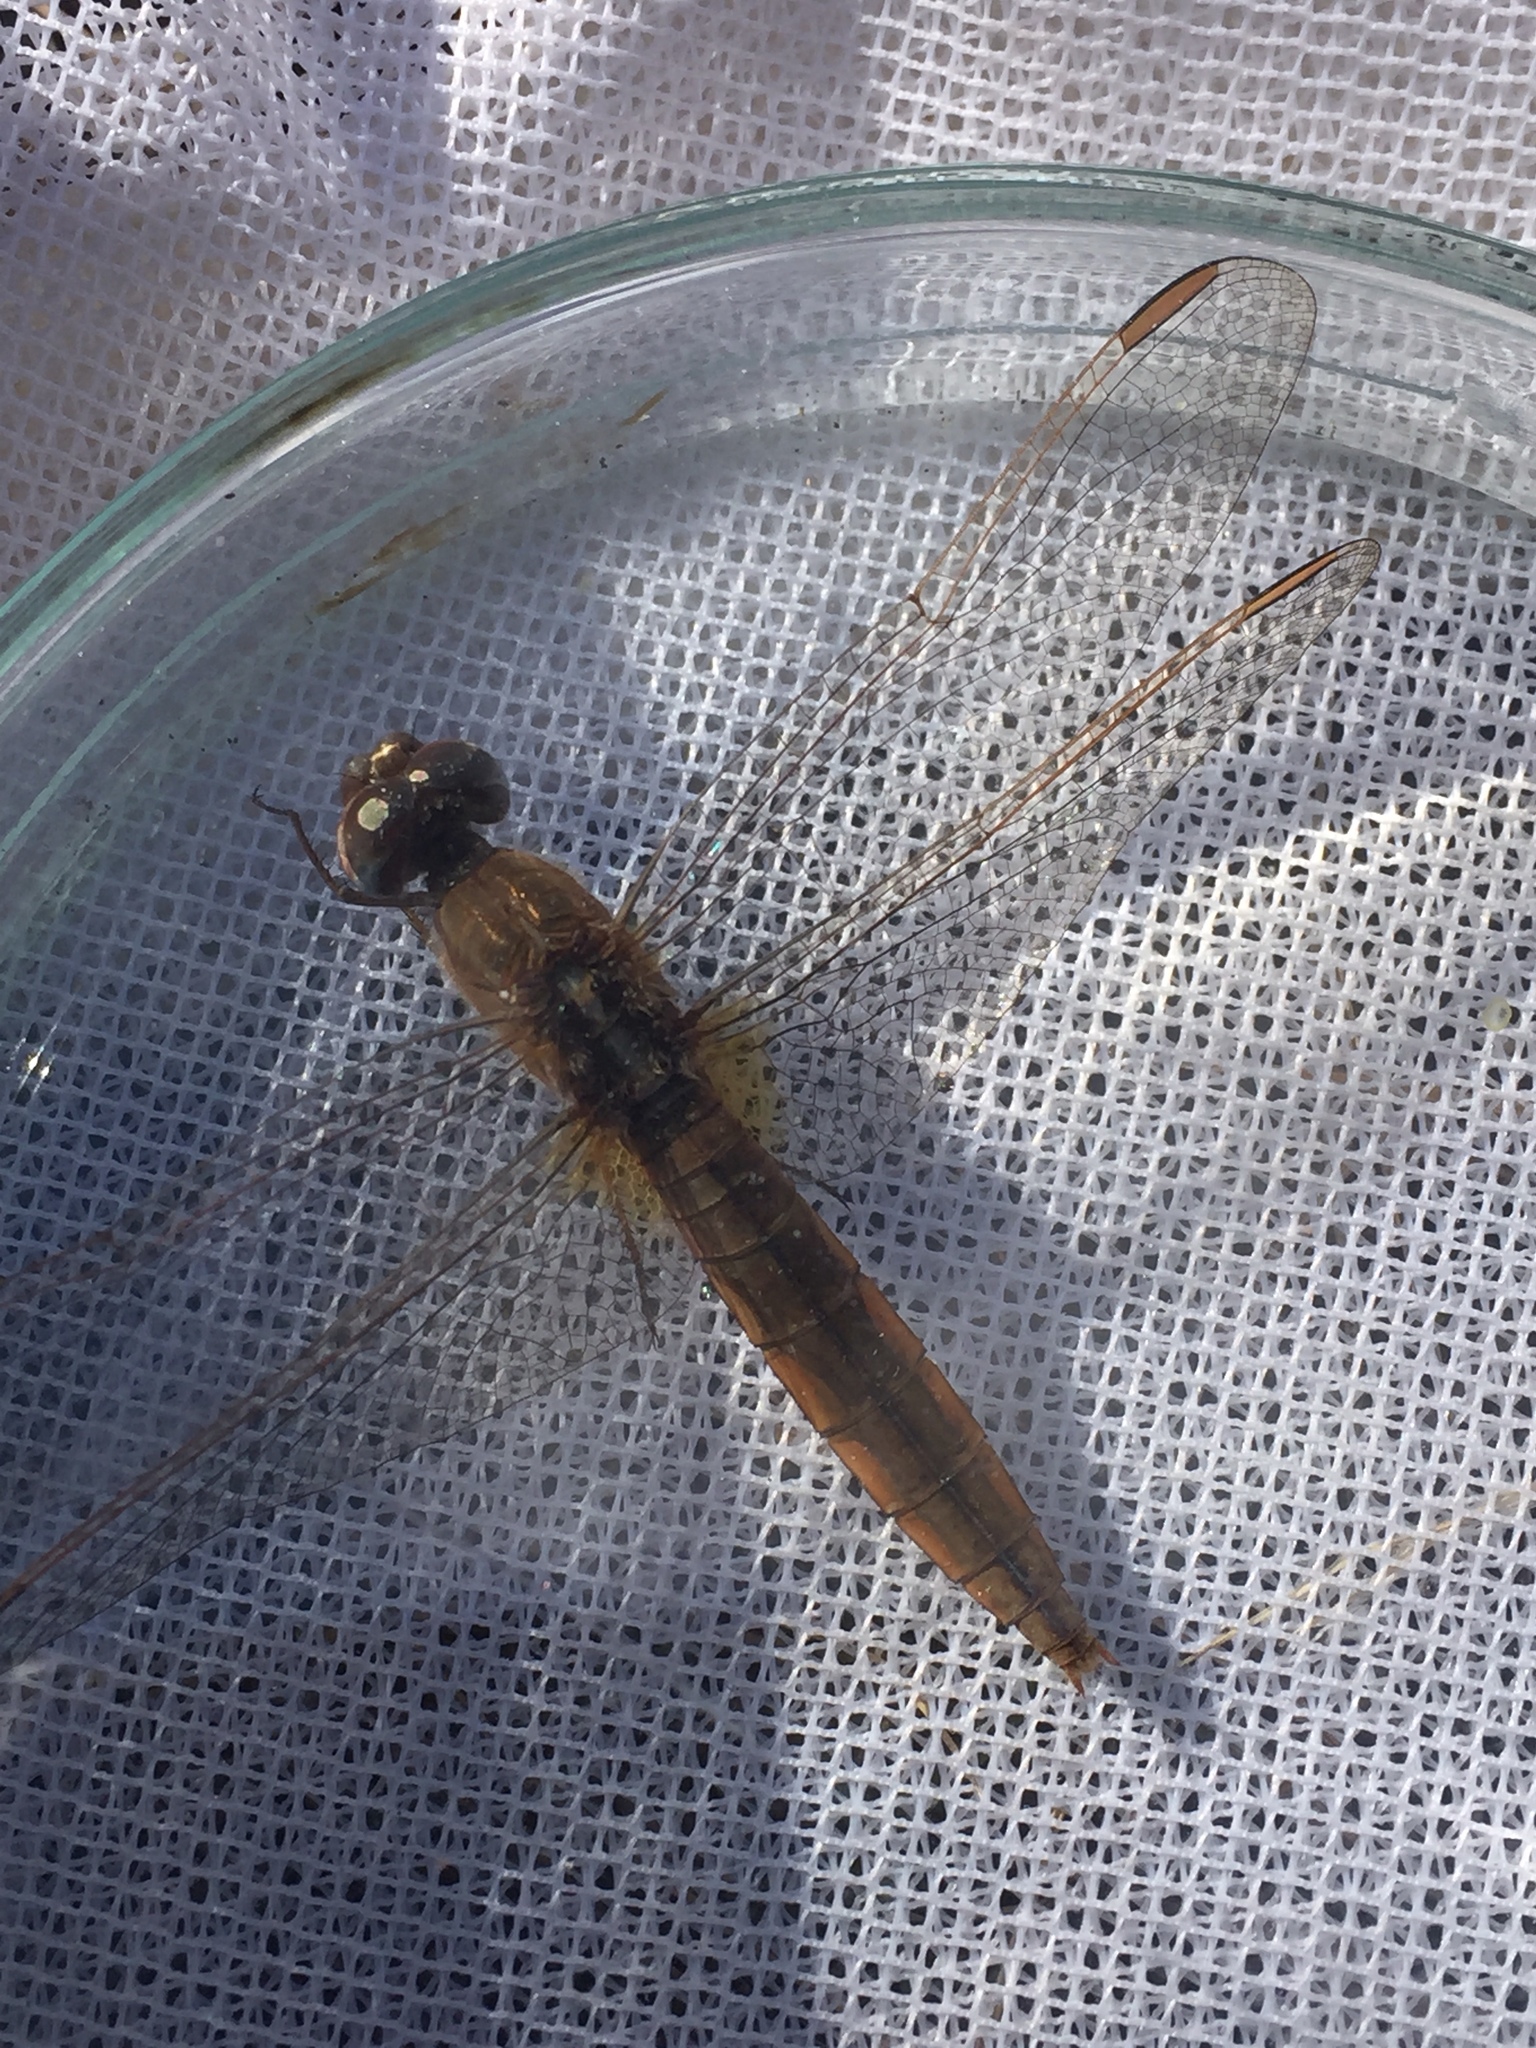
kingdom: Animalia
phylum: Arthropoda
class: Insecta
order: Odonata
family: Libellulidae
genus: Crocothemis
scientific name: Crocothemis erythraea
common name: Scarlet dragonfly
